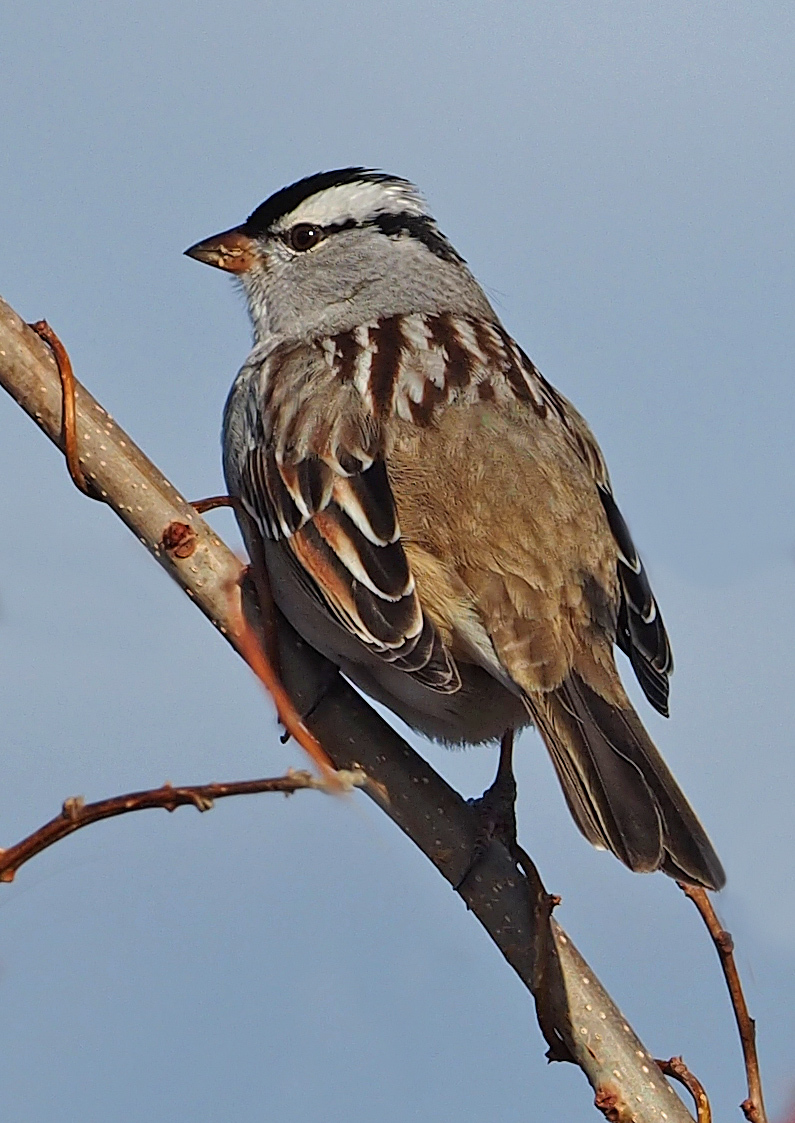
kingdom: Animalia
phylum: Chordata
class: Aves
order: Passeriformes
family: Passerellidae
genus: Zonotrichia
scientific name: Zonotrichia leucophrys
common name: White-crowned sparrow
